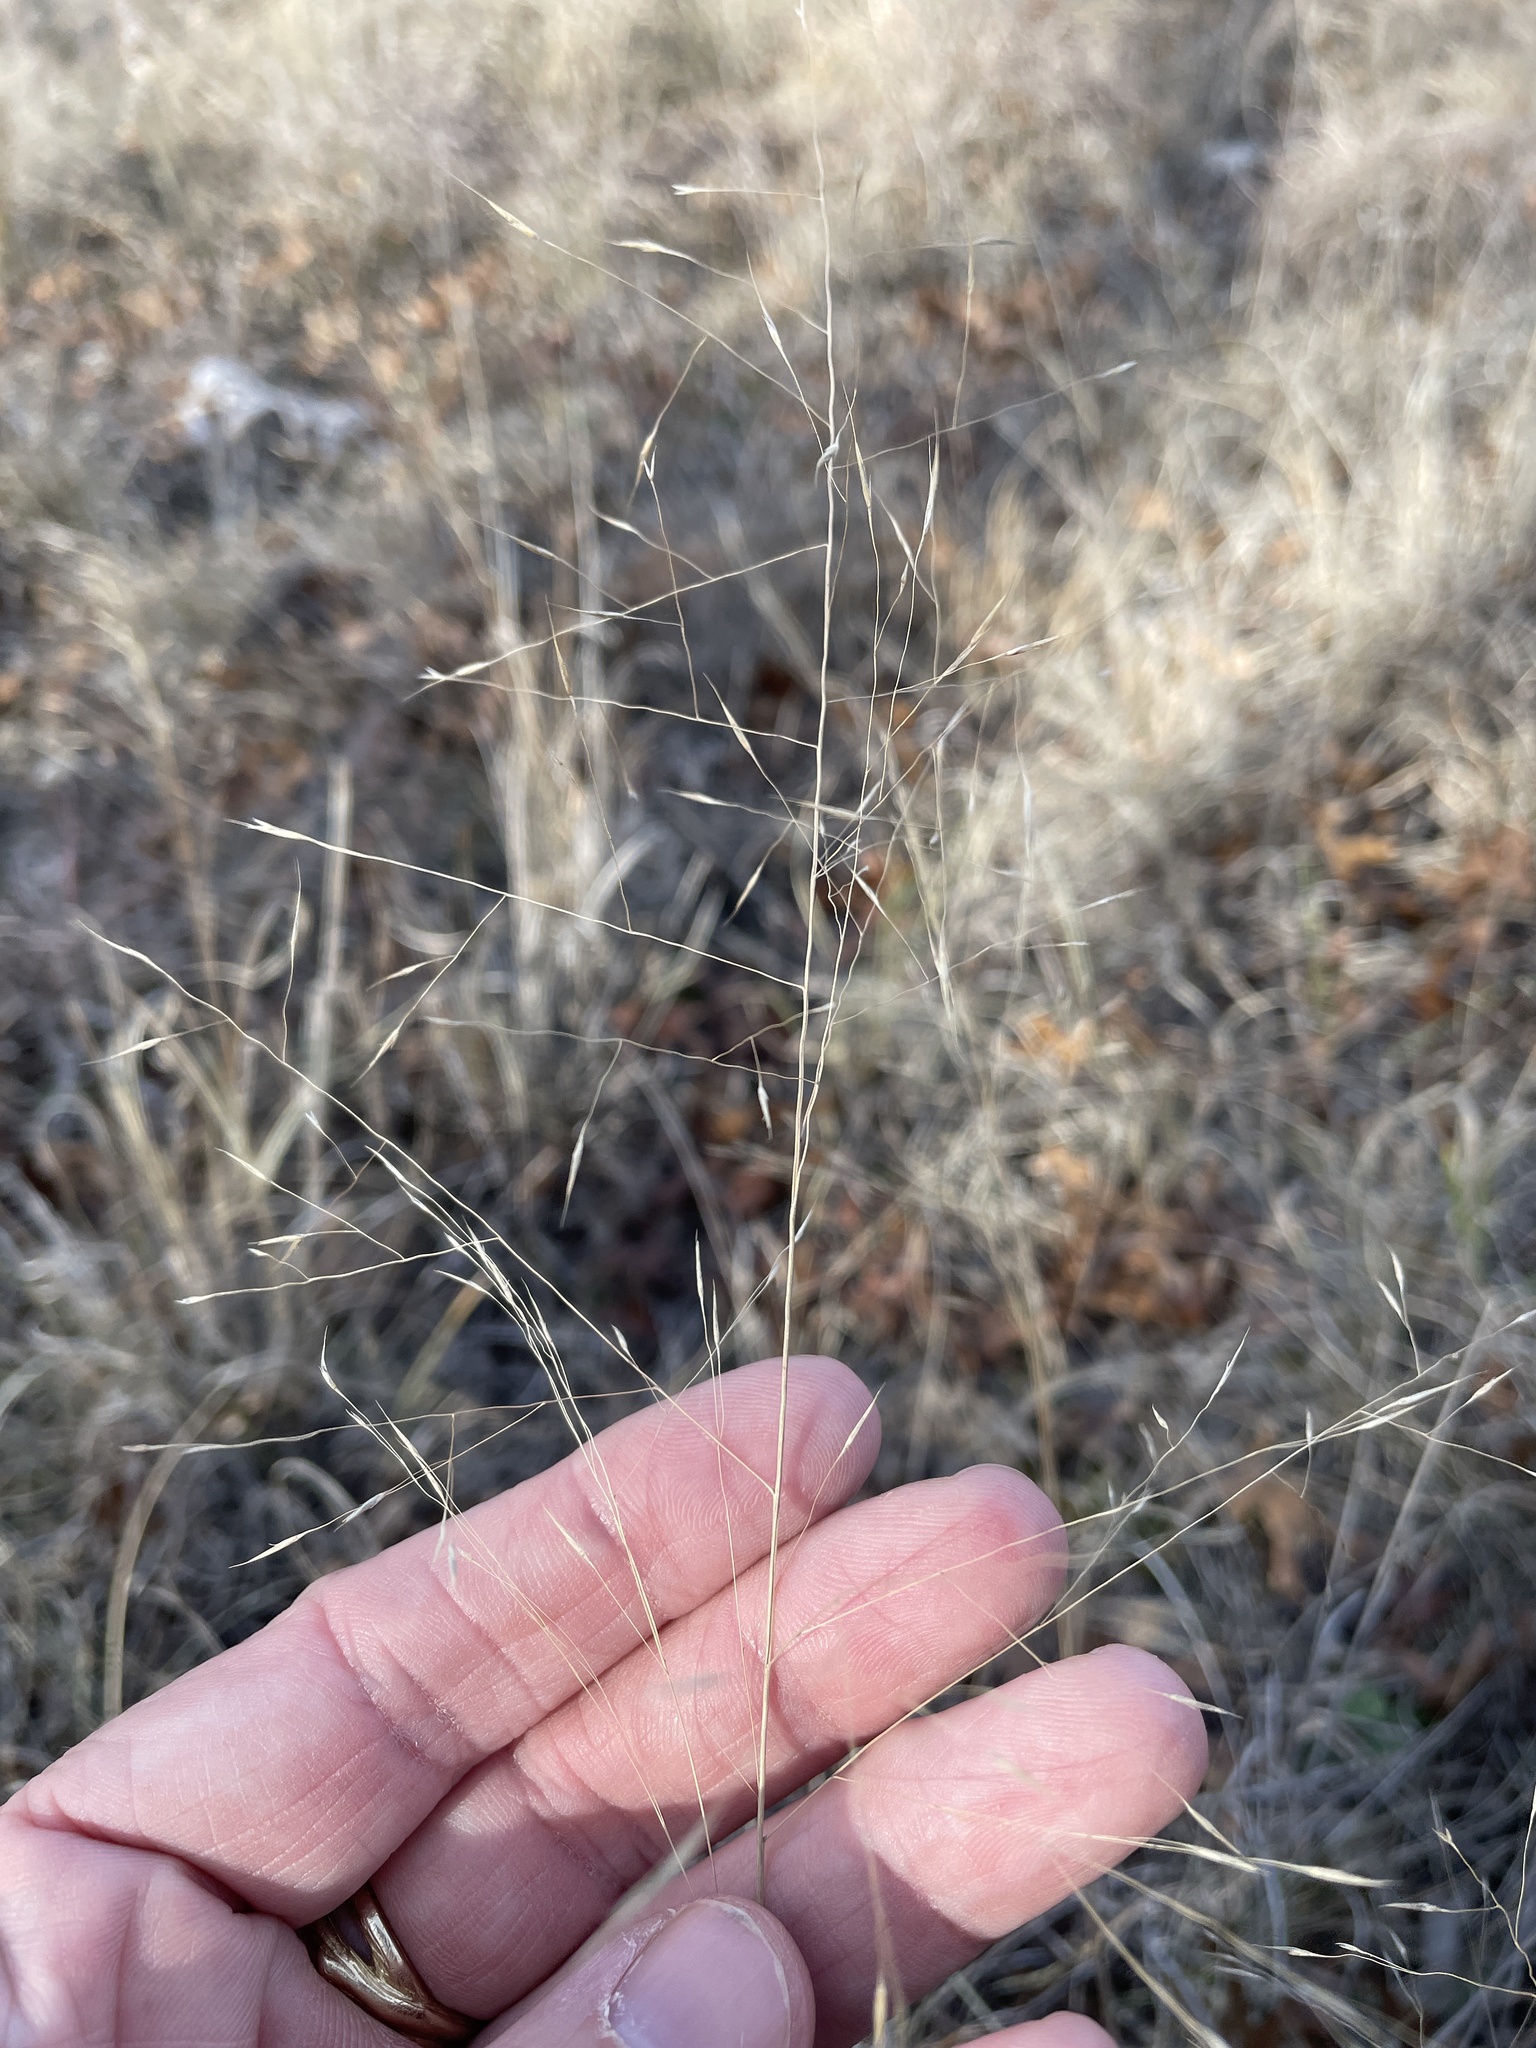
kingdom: Plantae
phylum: Tracheophyta
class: Liliopsida
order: Poales
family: Poaceae
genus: Muhlenbergia
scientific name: Muhlenbergia reverchonii
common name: Seep muhly
